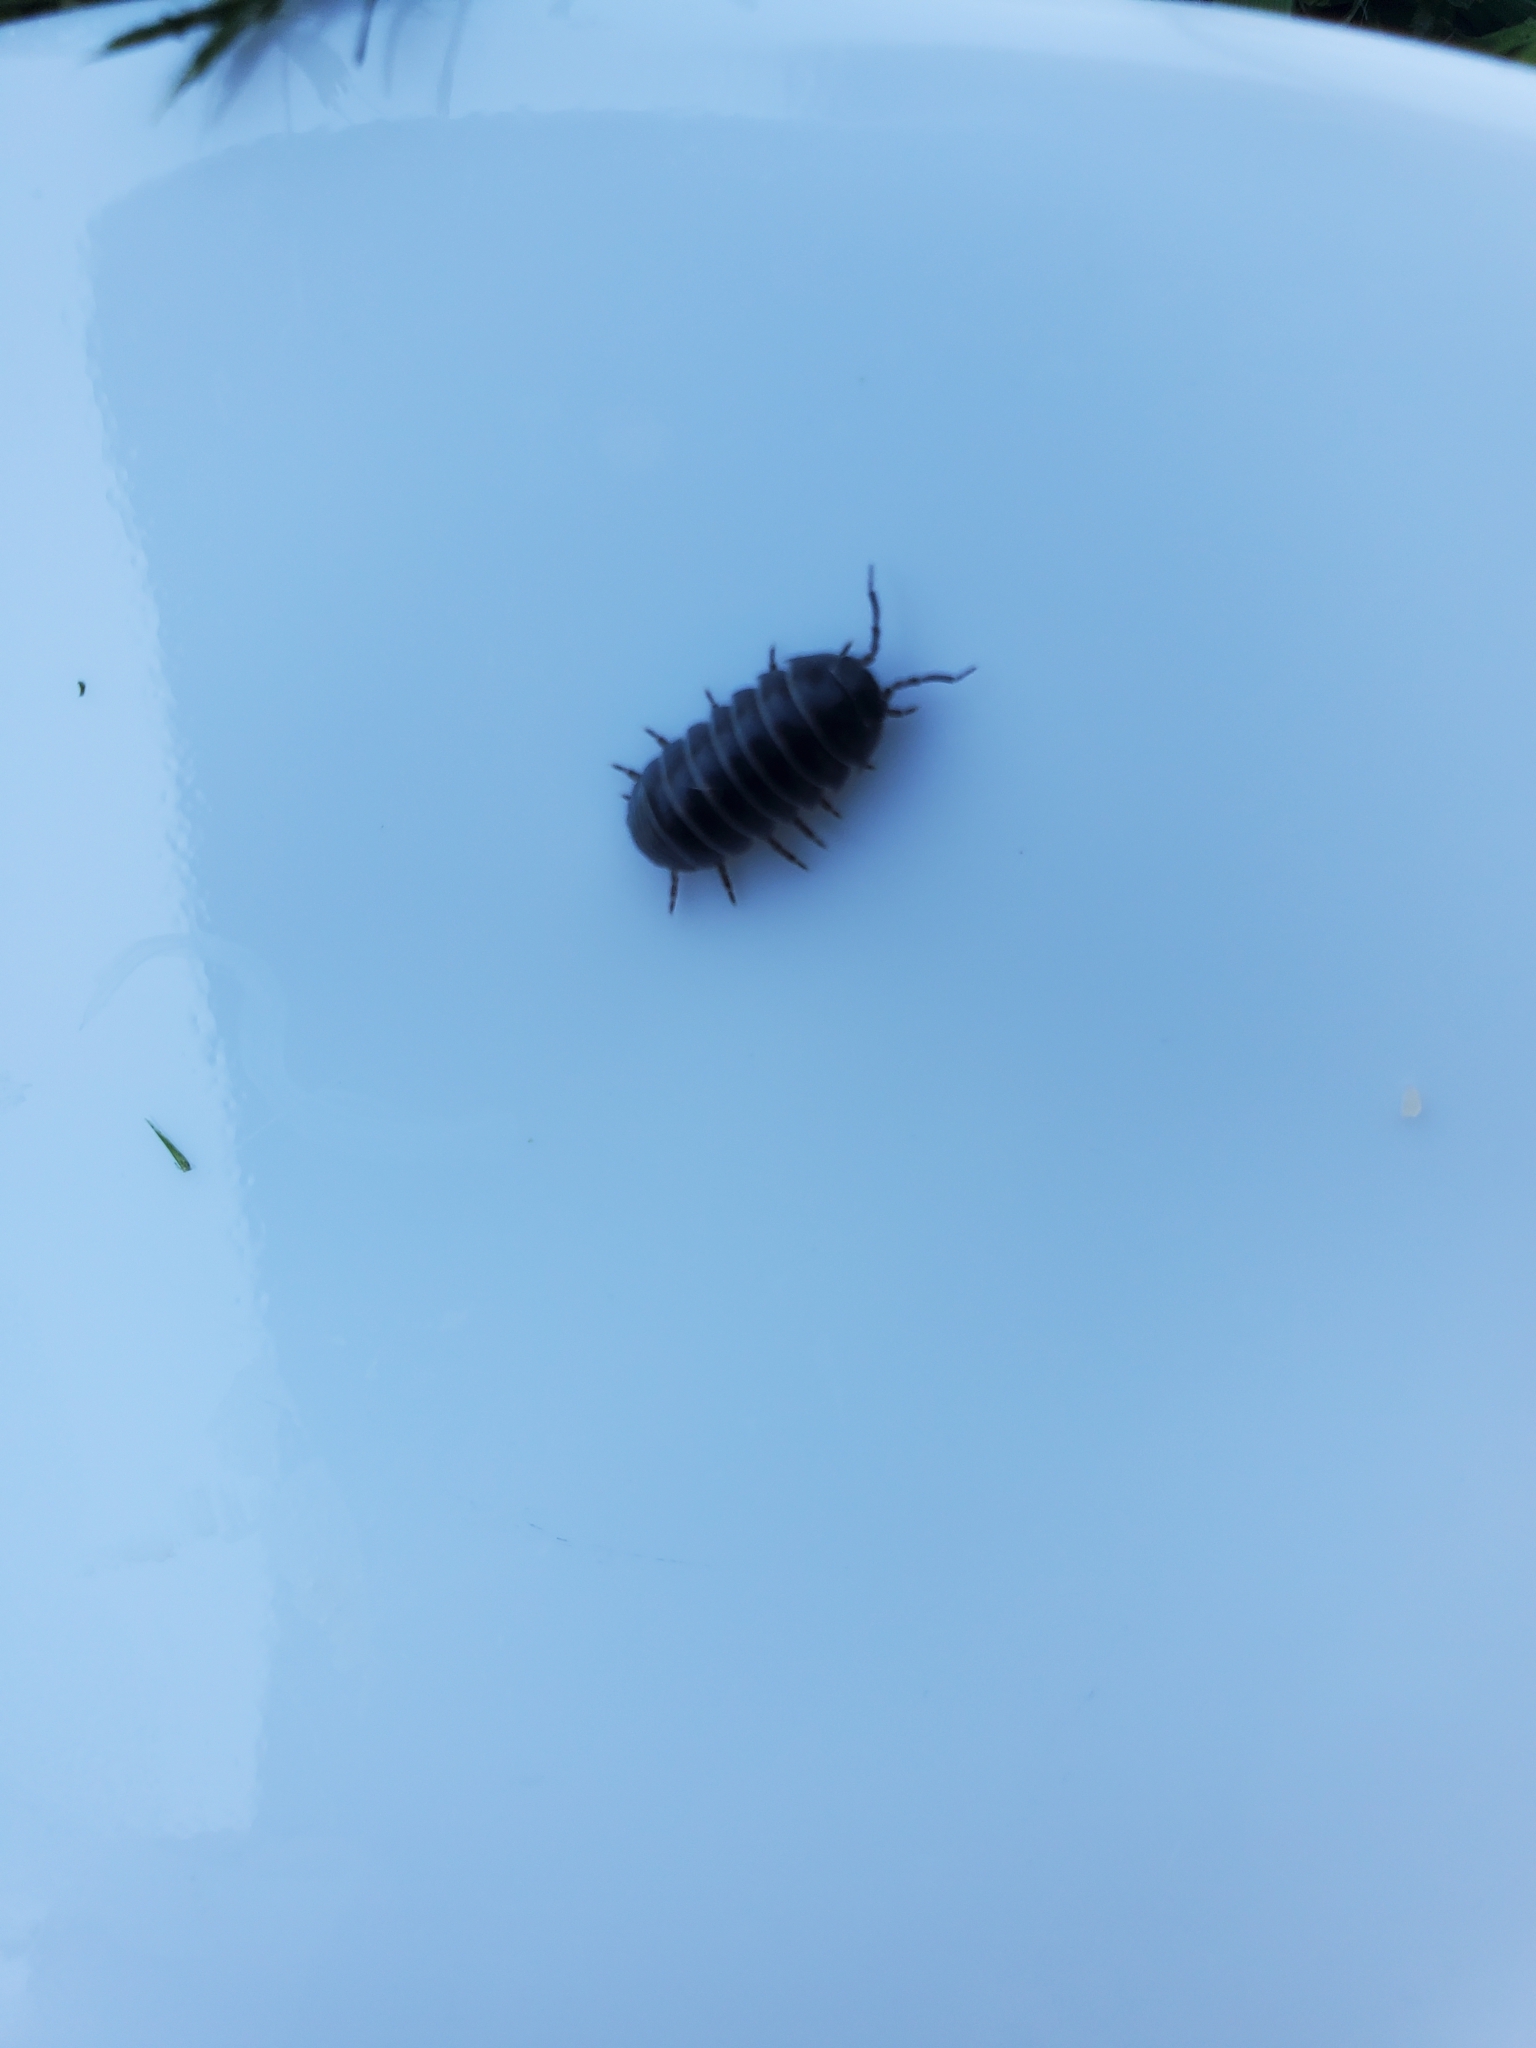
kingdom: Animalia
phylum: Arthropoda
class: Malacostraca
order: Isopoda
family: Armadillidiidae
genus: Armadillidium
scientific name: Armadillidium vulgare
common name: Common pill woodlouse
